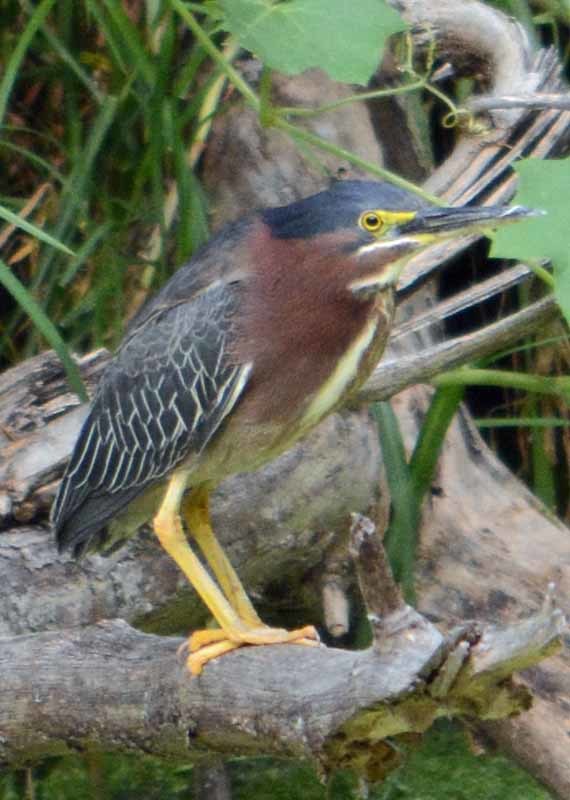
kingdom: Animalia
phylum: Chordata
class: Aves
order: Pelecaniformes
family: Ardeidae
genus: Butorides
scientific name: Butorides virescens
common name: Green heron
